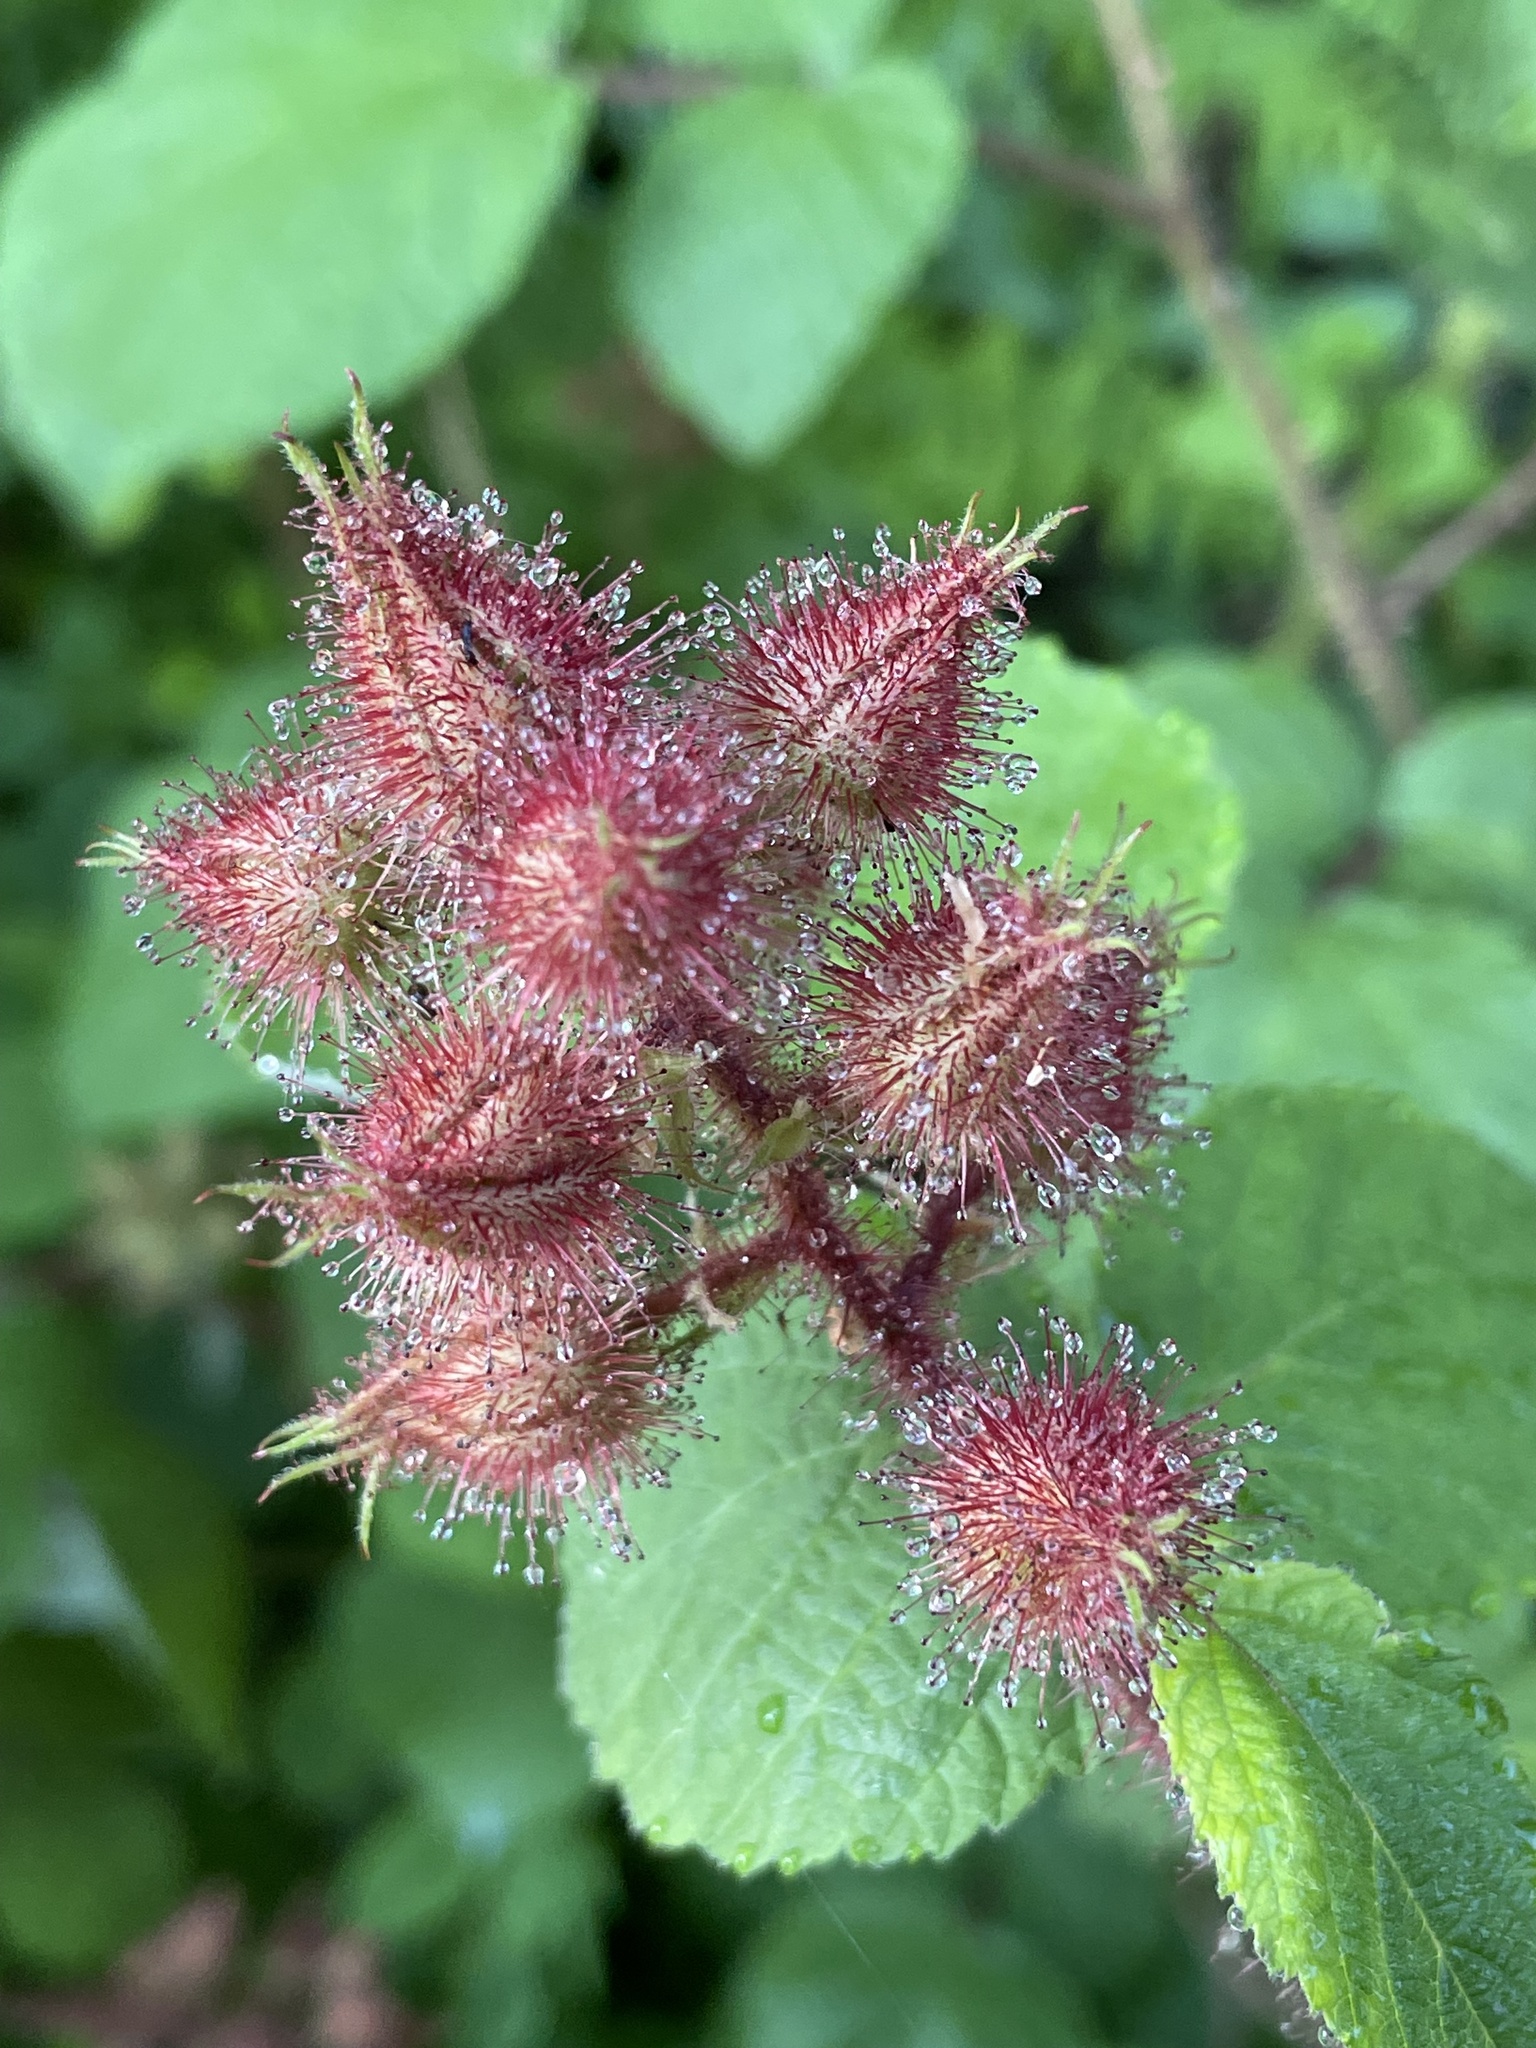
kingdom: Plantae
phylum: Tracheophyta
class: Magnoliopsida
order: Rosales
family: Rosaceae
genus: Rubus
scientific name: Rubus phoenicolasius
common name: Japanese wineberry
